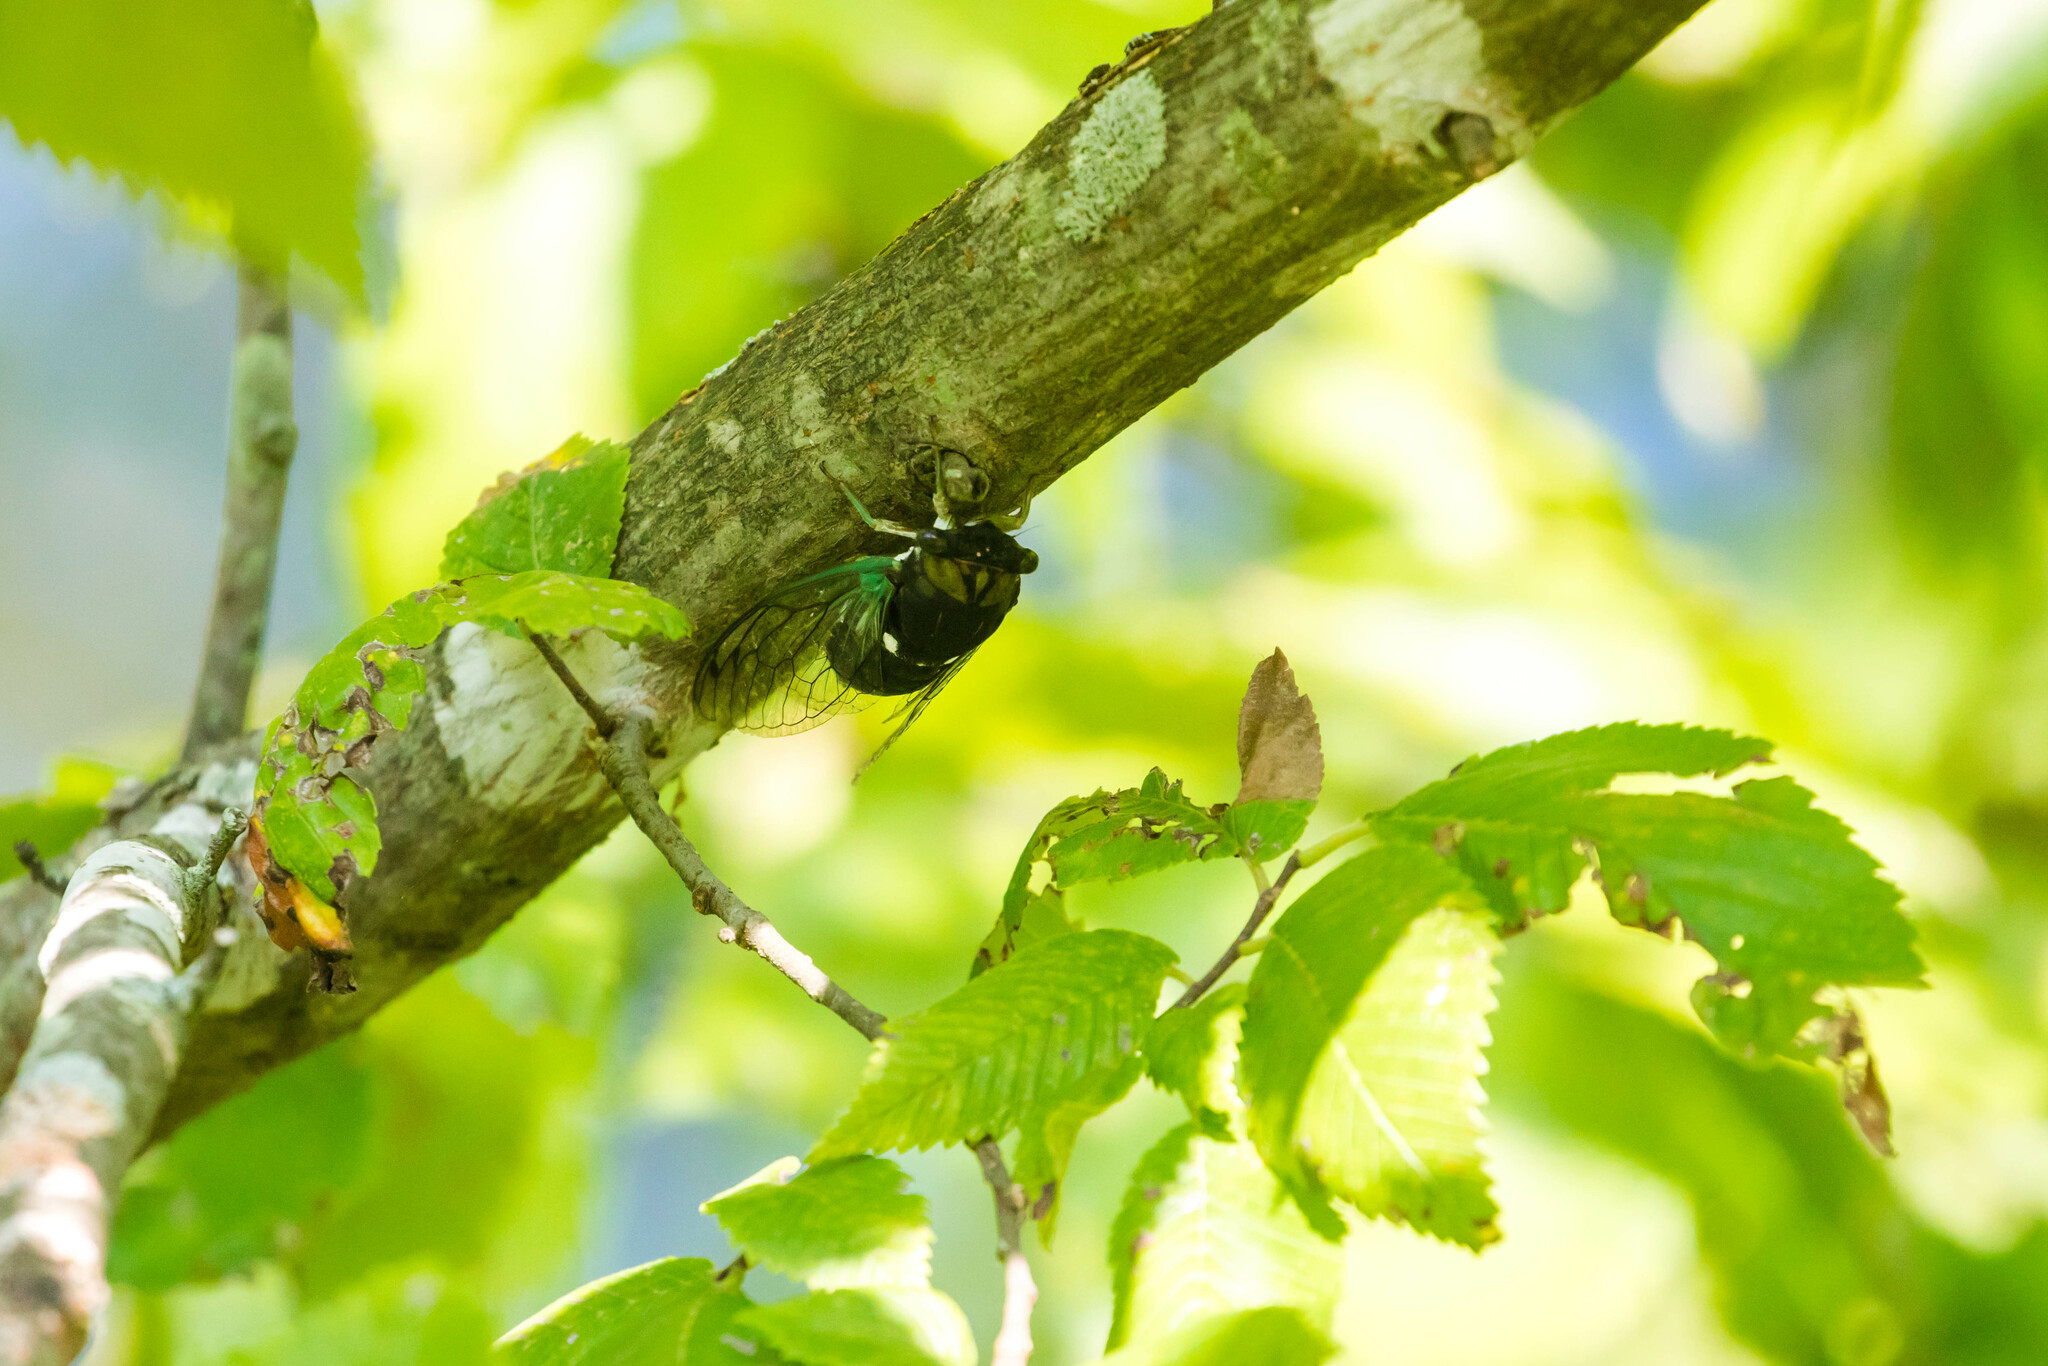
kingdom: Animalia
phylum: Arthropoda
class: Insecta
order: Hemiptera
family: Cicadidae
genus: Neotibicen
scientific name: Neotibicen tibicen
